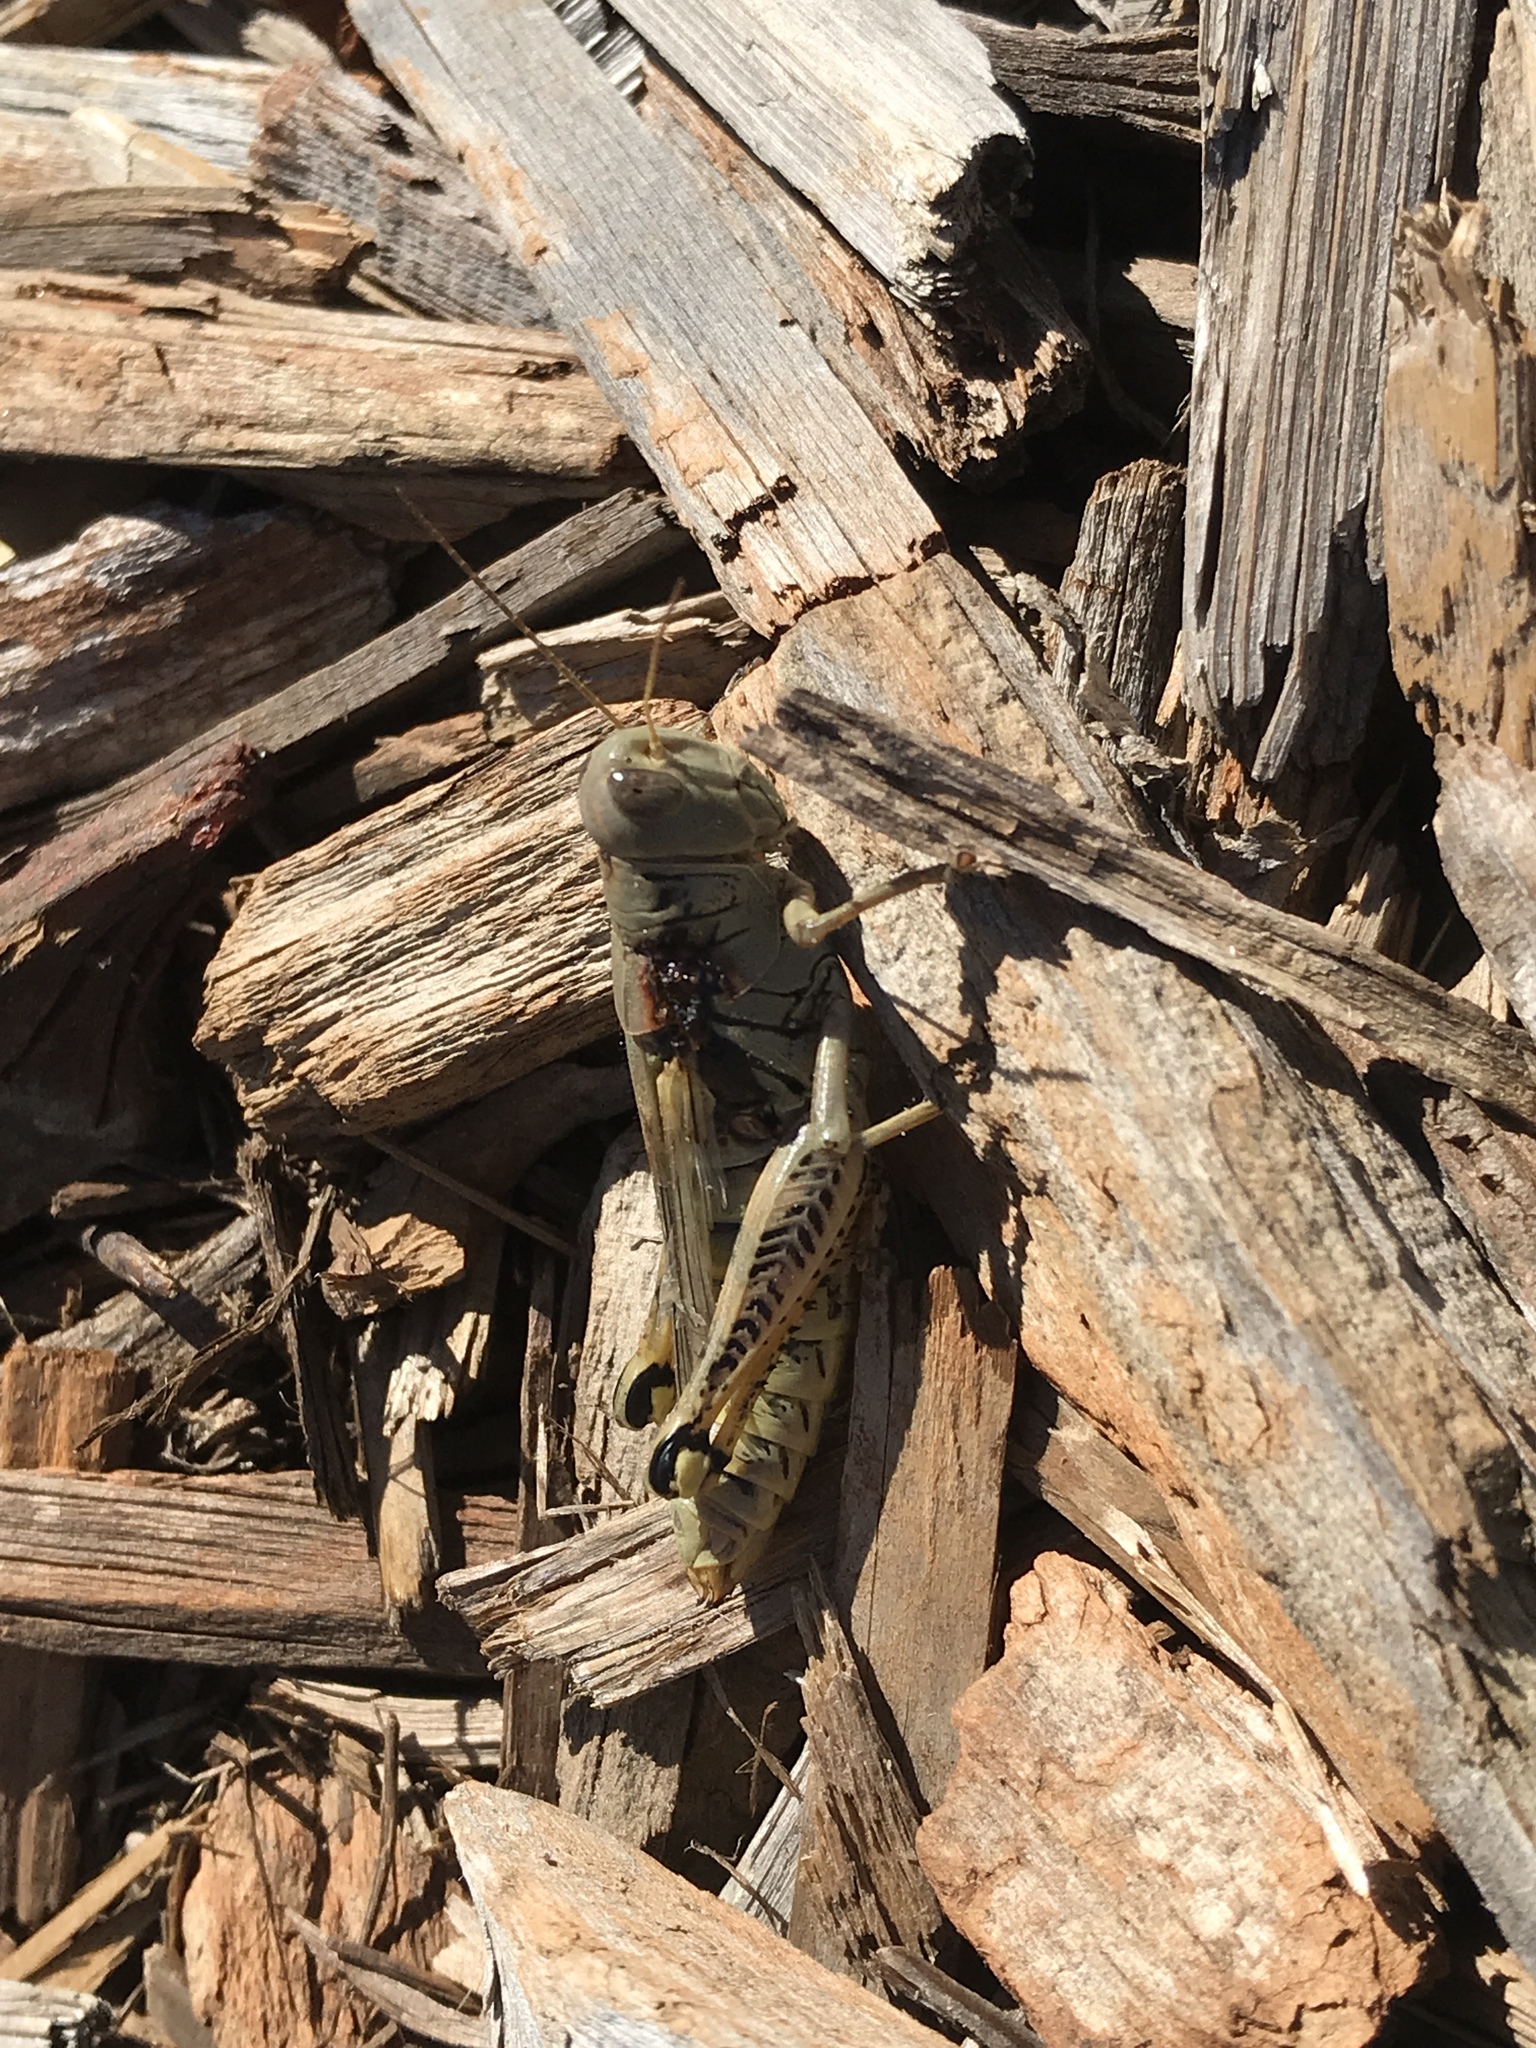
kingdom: Animalia
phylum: Arthropoda
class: Insecta
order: Orthoptera
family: Acrididae
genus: Melanoplus
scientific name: Melanoplus differentialis
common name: Differential grasshopper
